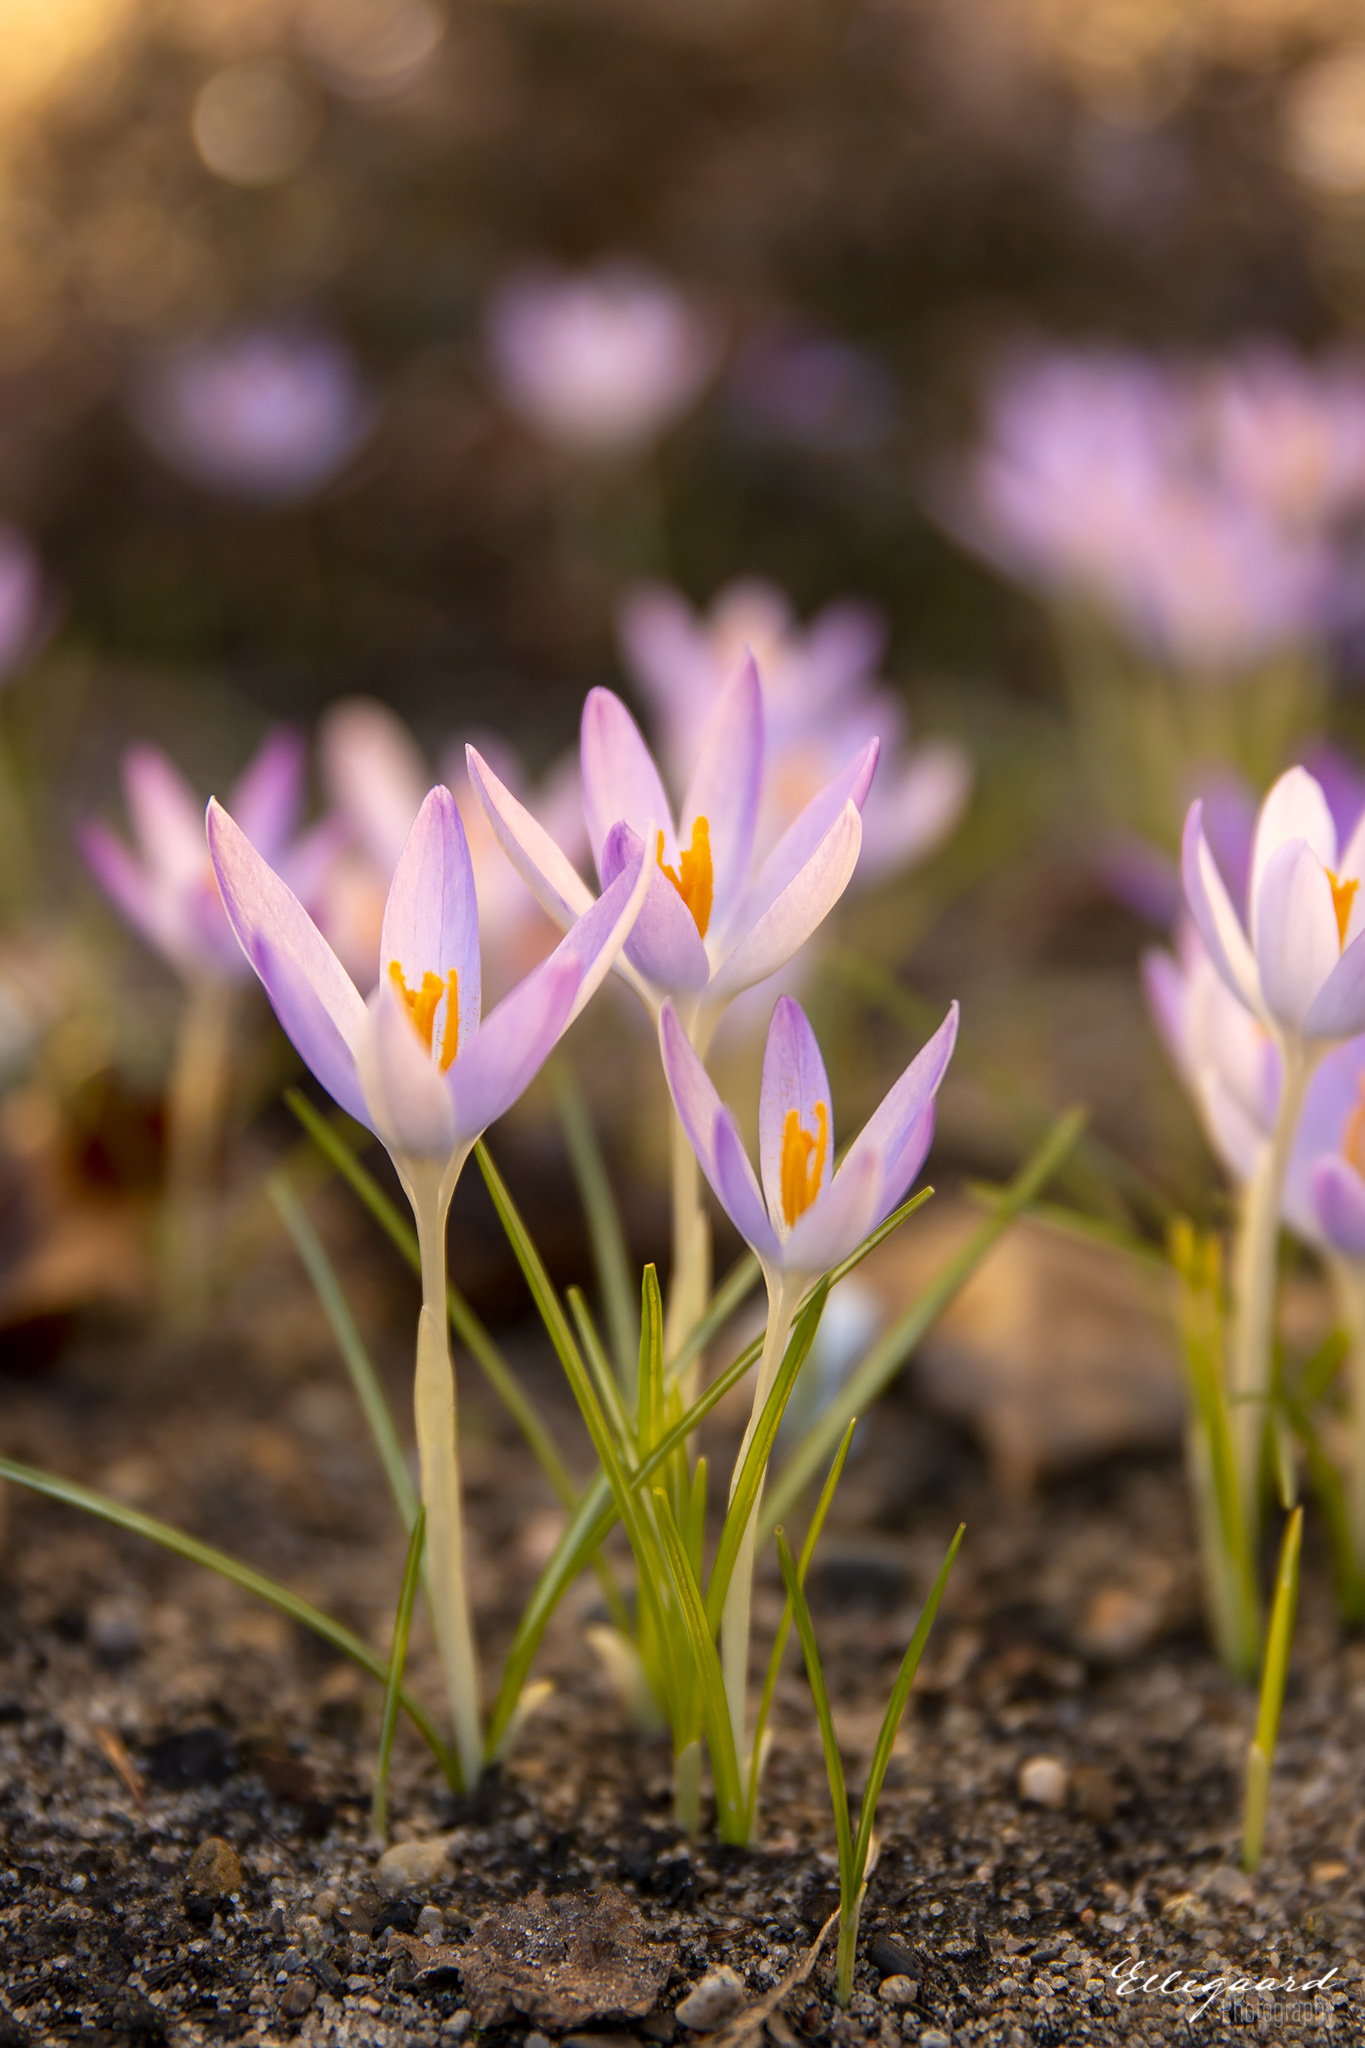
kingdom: Plantae
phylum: Tracheophyta
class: Liliopsida
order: Asparagales
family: Iridaceae
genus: Crocus
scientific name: Crocus tommasinianus
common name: Early crocus
